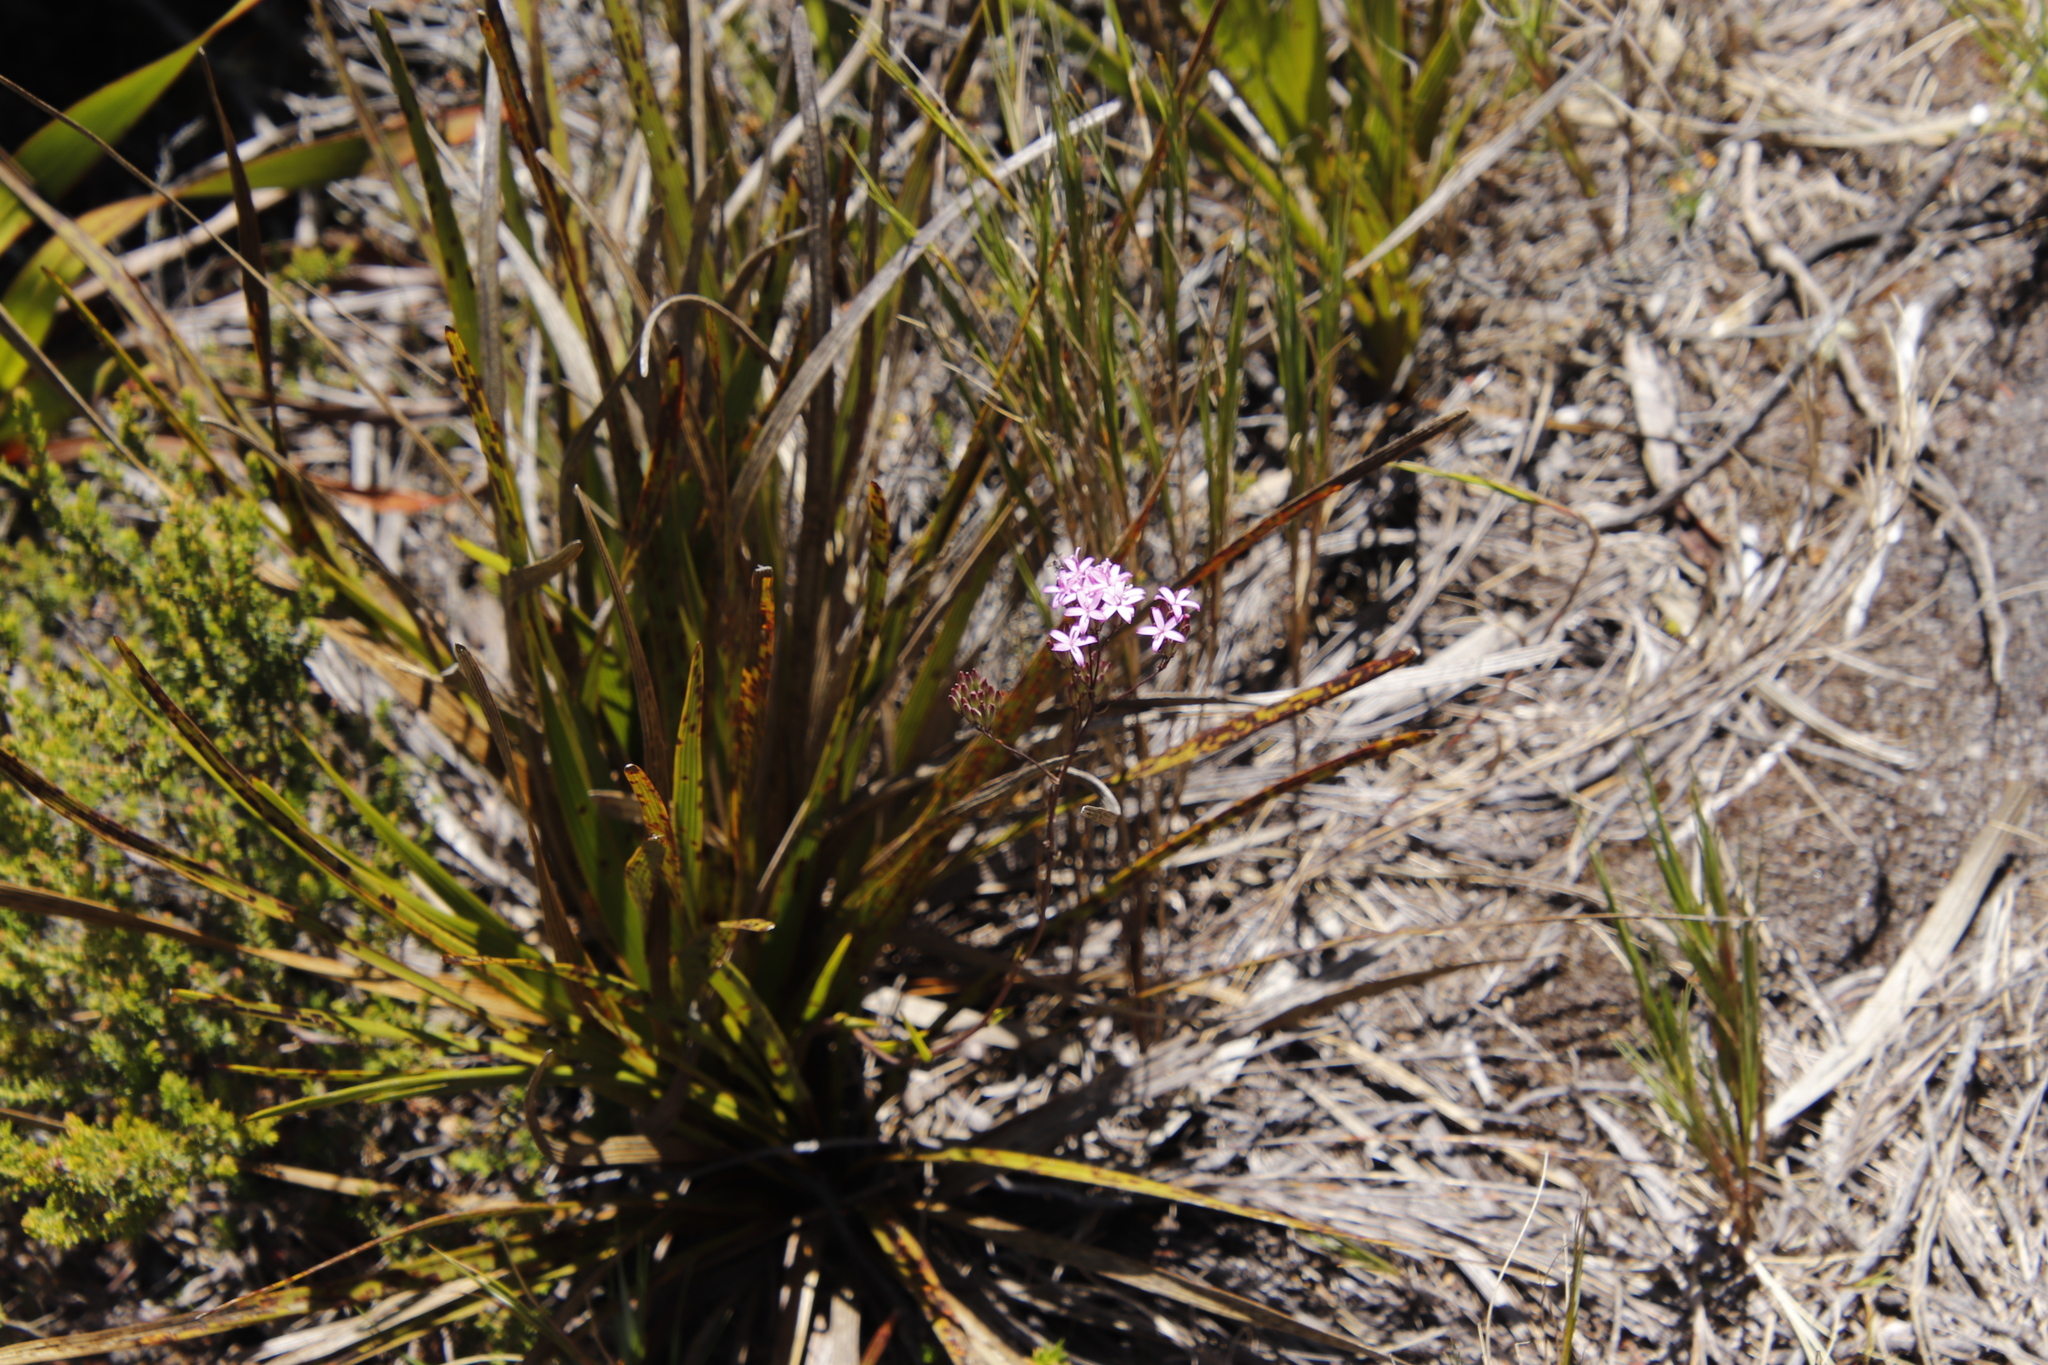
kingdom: Plantae
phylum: Tracheophyta
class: Magnoliopsida
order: Asterales
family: Asteraceae
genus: Corymbium
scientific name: Corymbium glabrum
